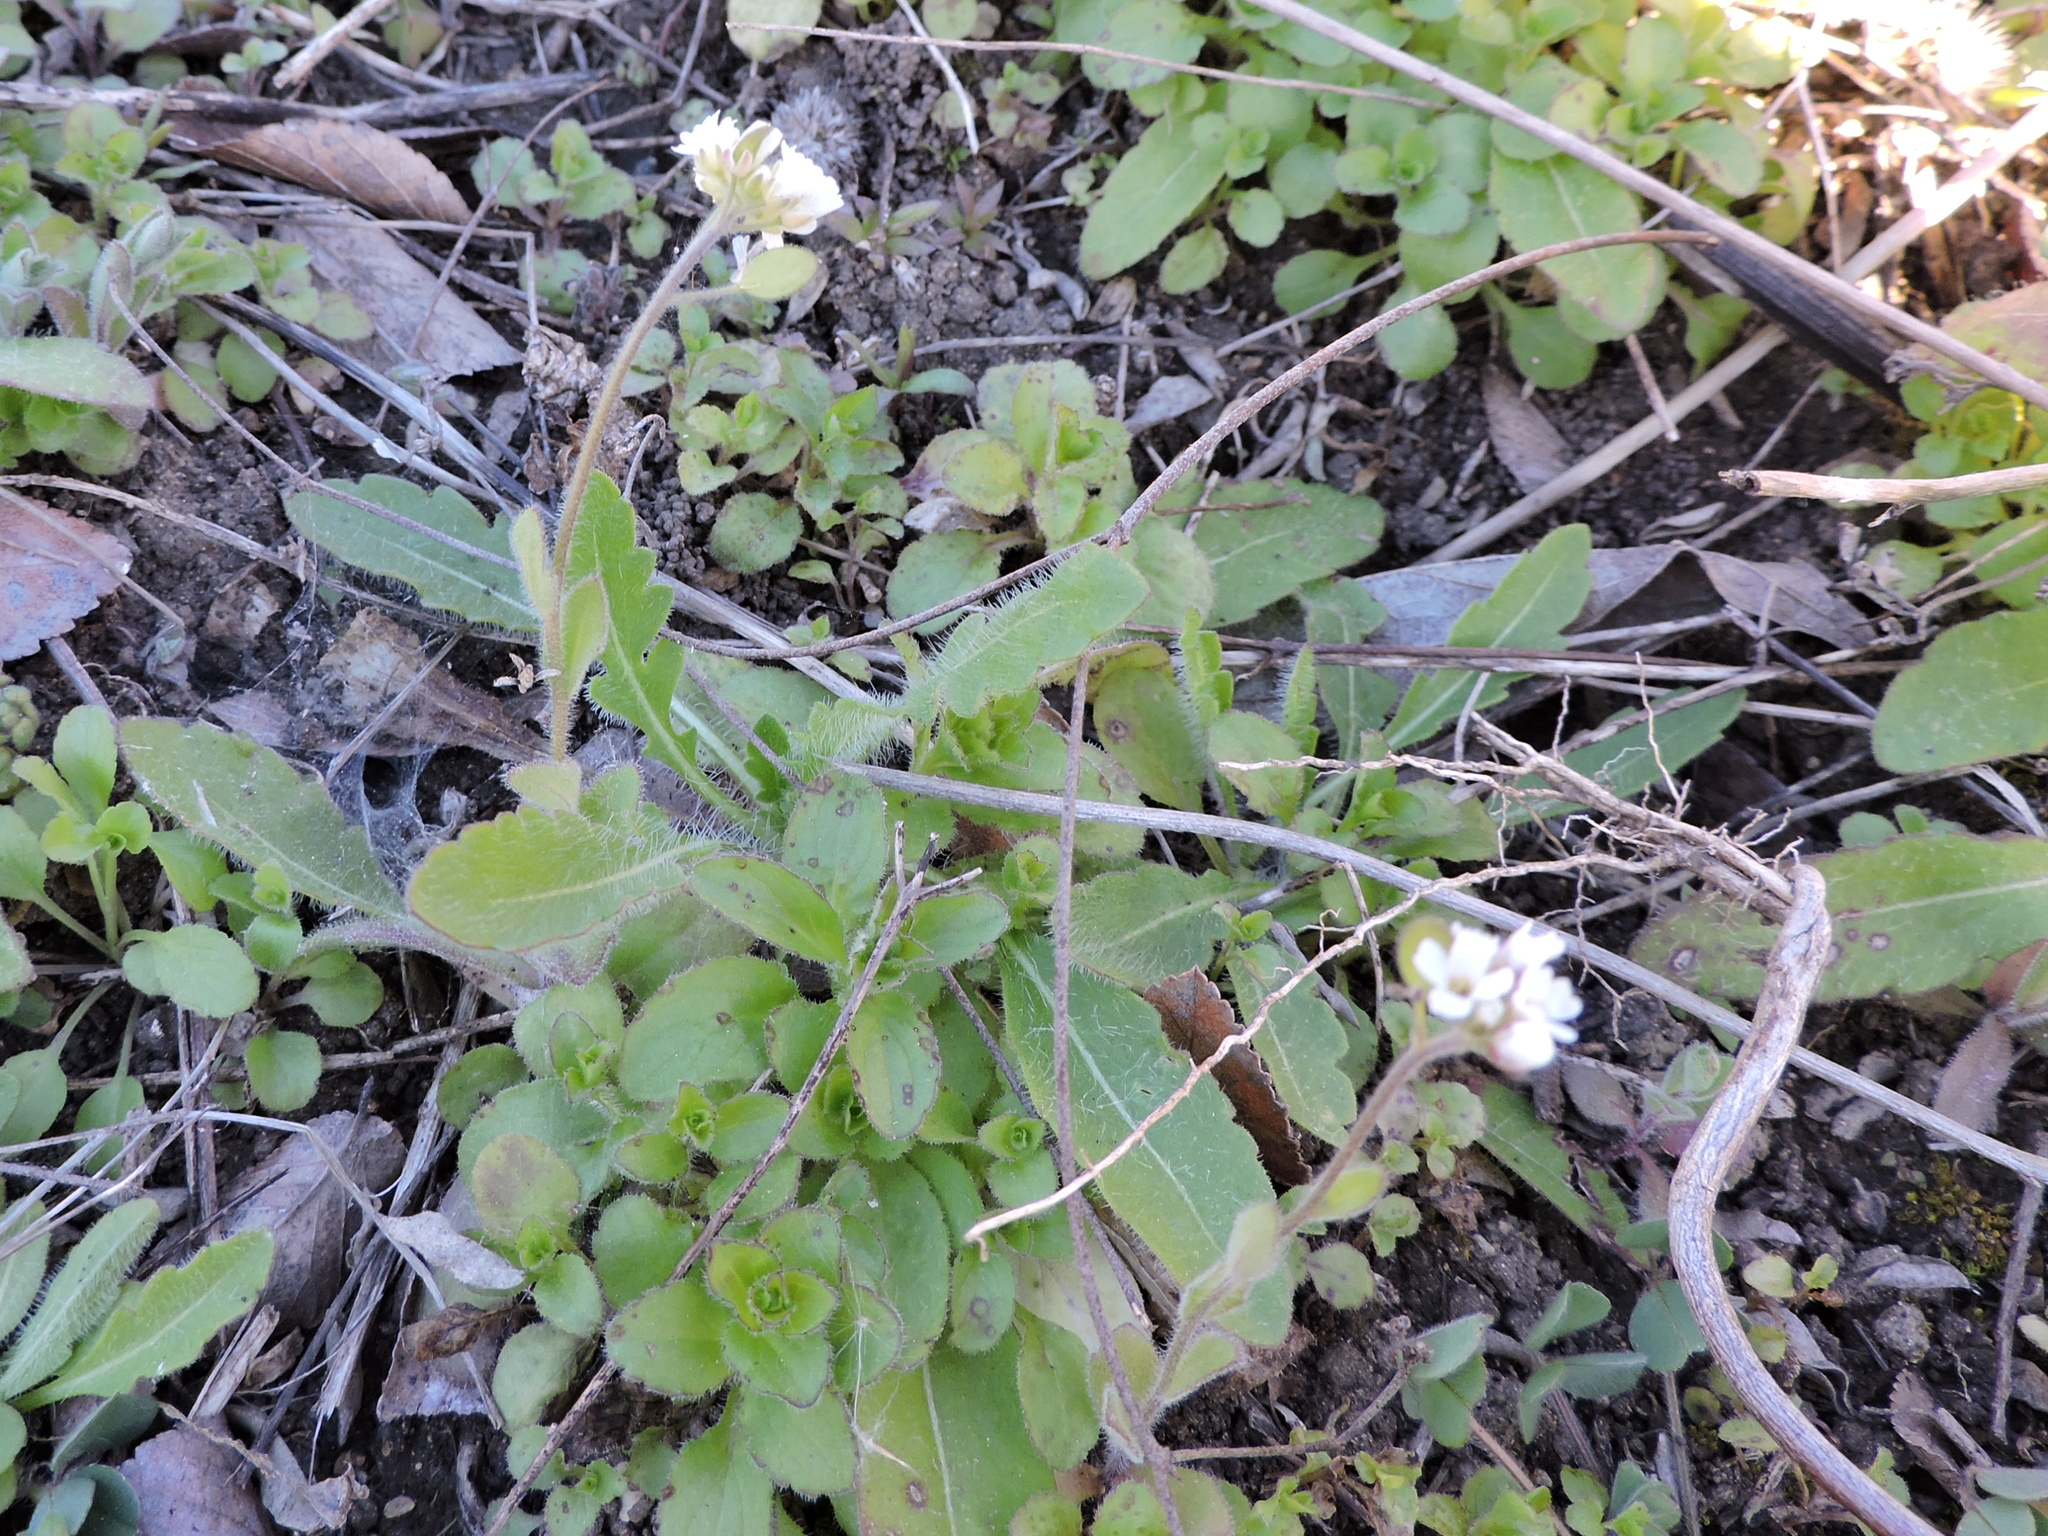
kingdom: Plantae
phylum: Tracheophyta
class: Magnoliopsida
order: Brassicales
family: Brassicaceae
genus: Tomostima
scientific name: Tomostima platycarpa
